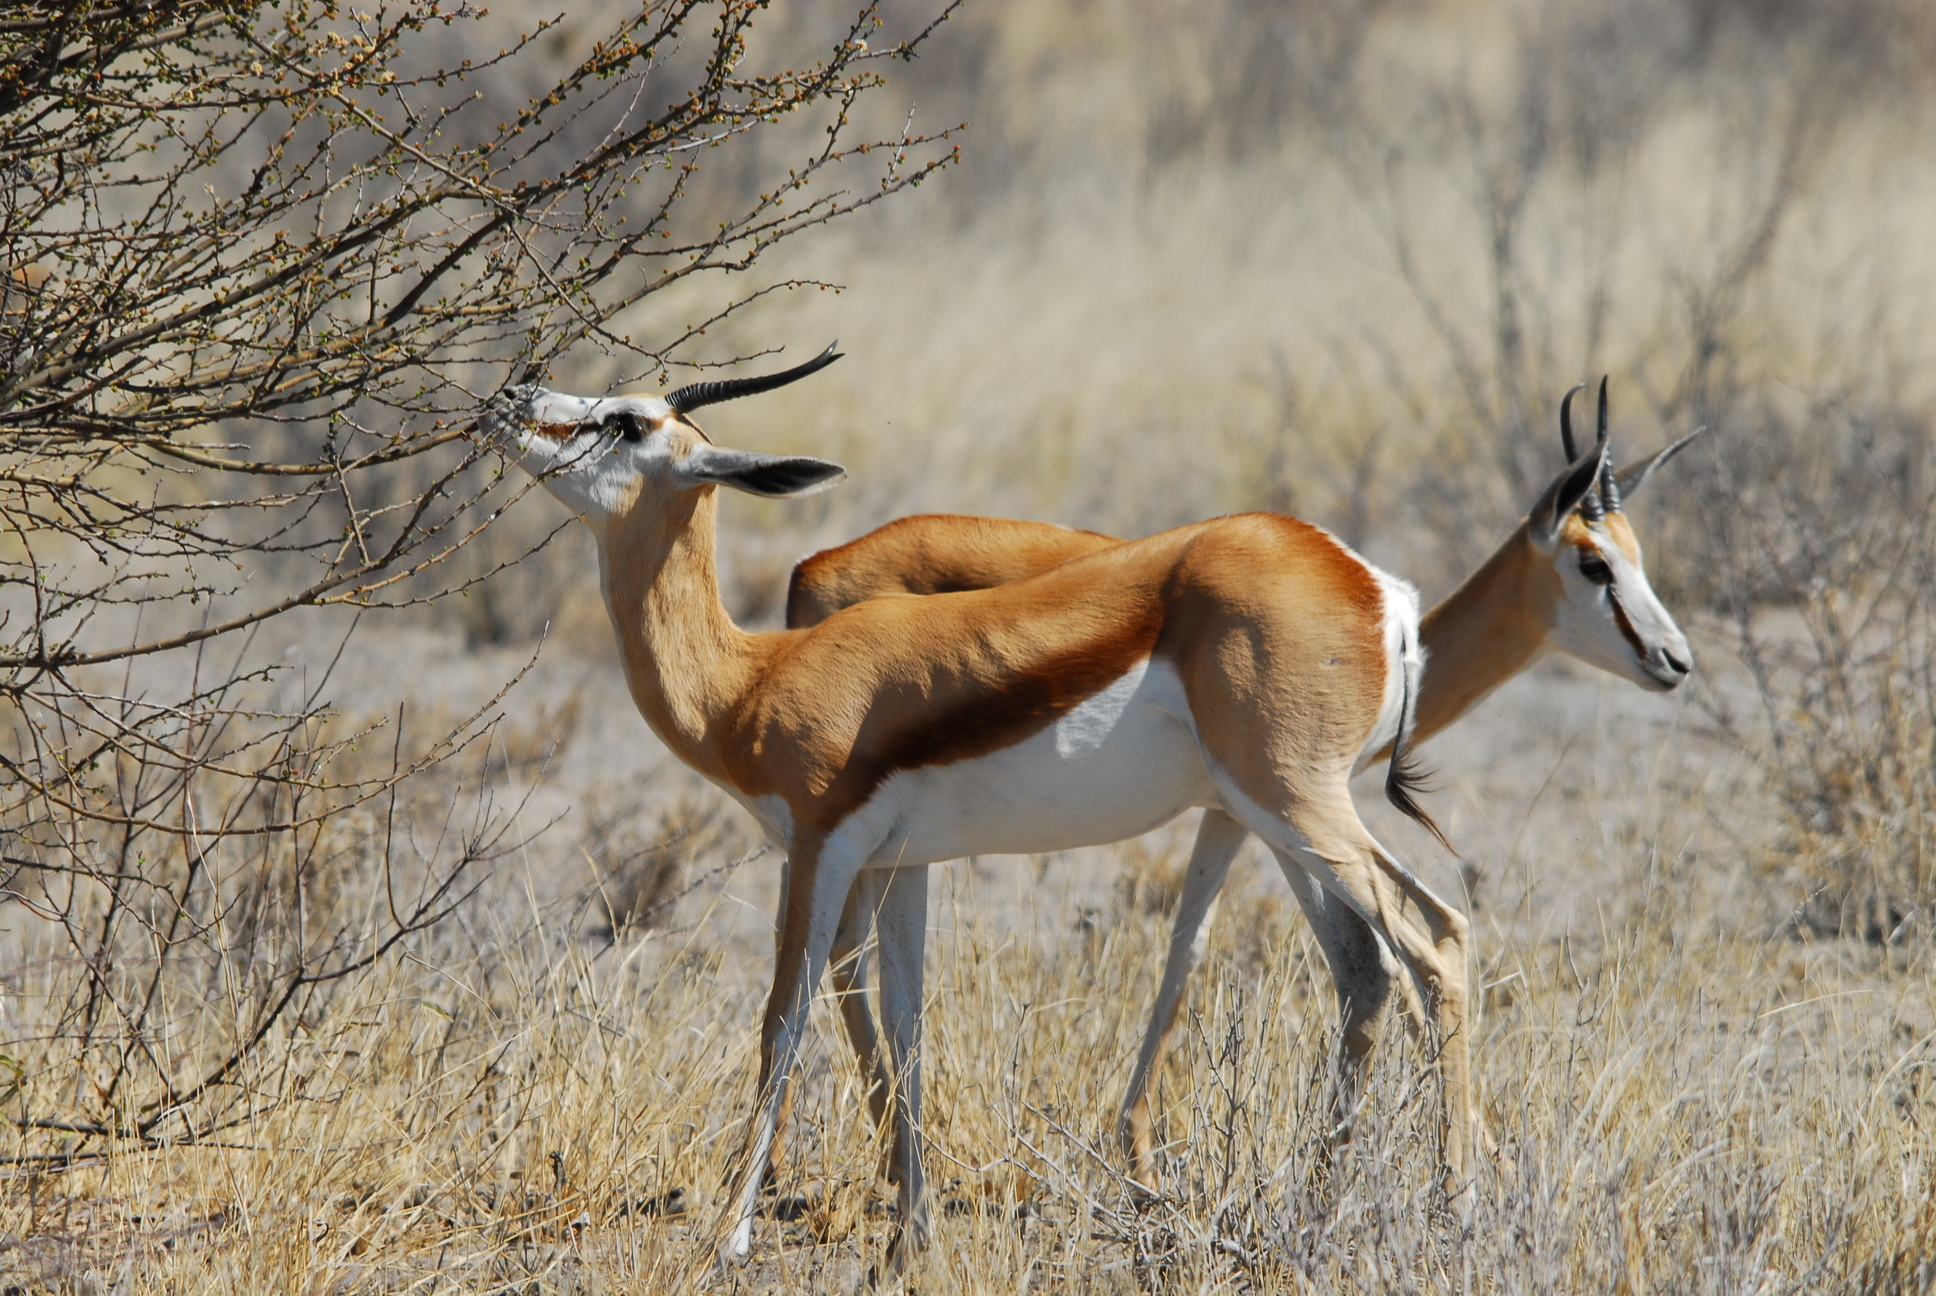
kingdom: Animalia
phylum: Chordata
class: Mammalia
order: Artiodactyla
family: Bovidae
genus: Antidorcas
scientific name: Antidorcas marsupialis
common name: Springbok
